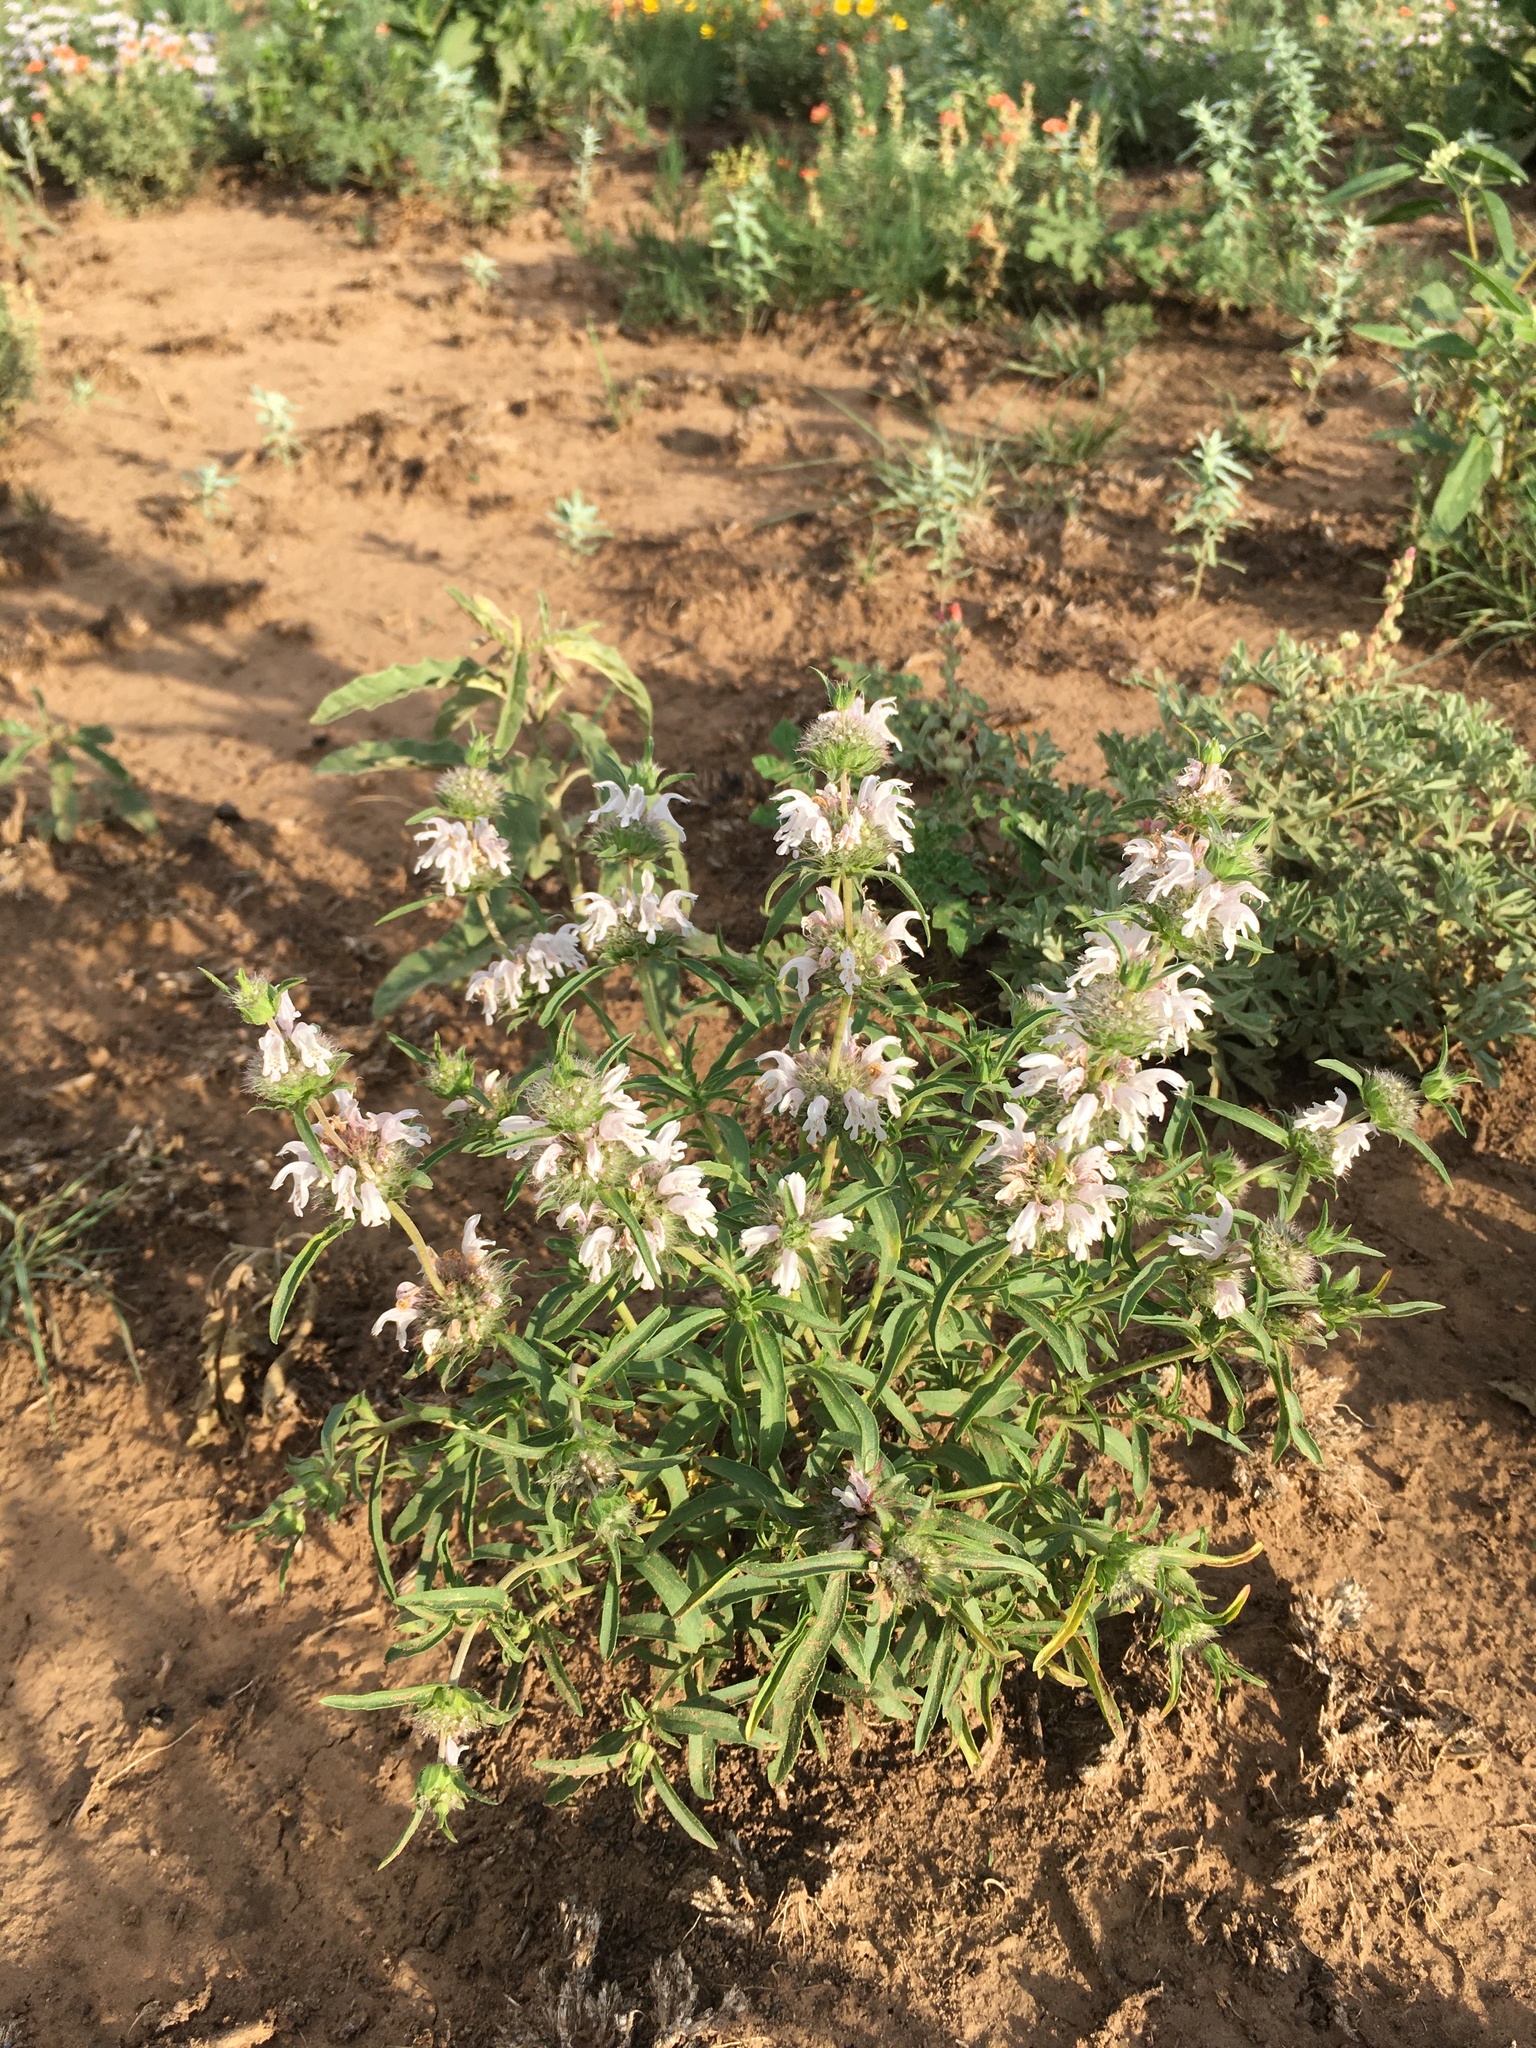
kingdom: Plantae
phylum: Tracheophyta
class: Magnoliopsida
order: Lamiales
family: Lamiaceae
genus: Monarda
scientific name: Monarda pectinata
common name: Plains beebalm
